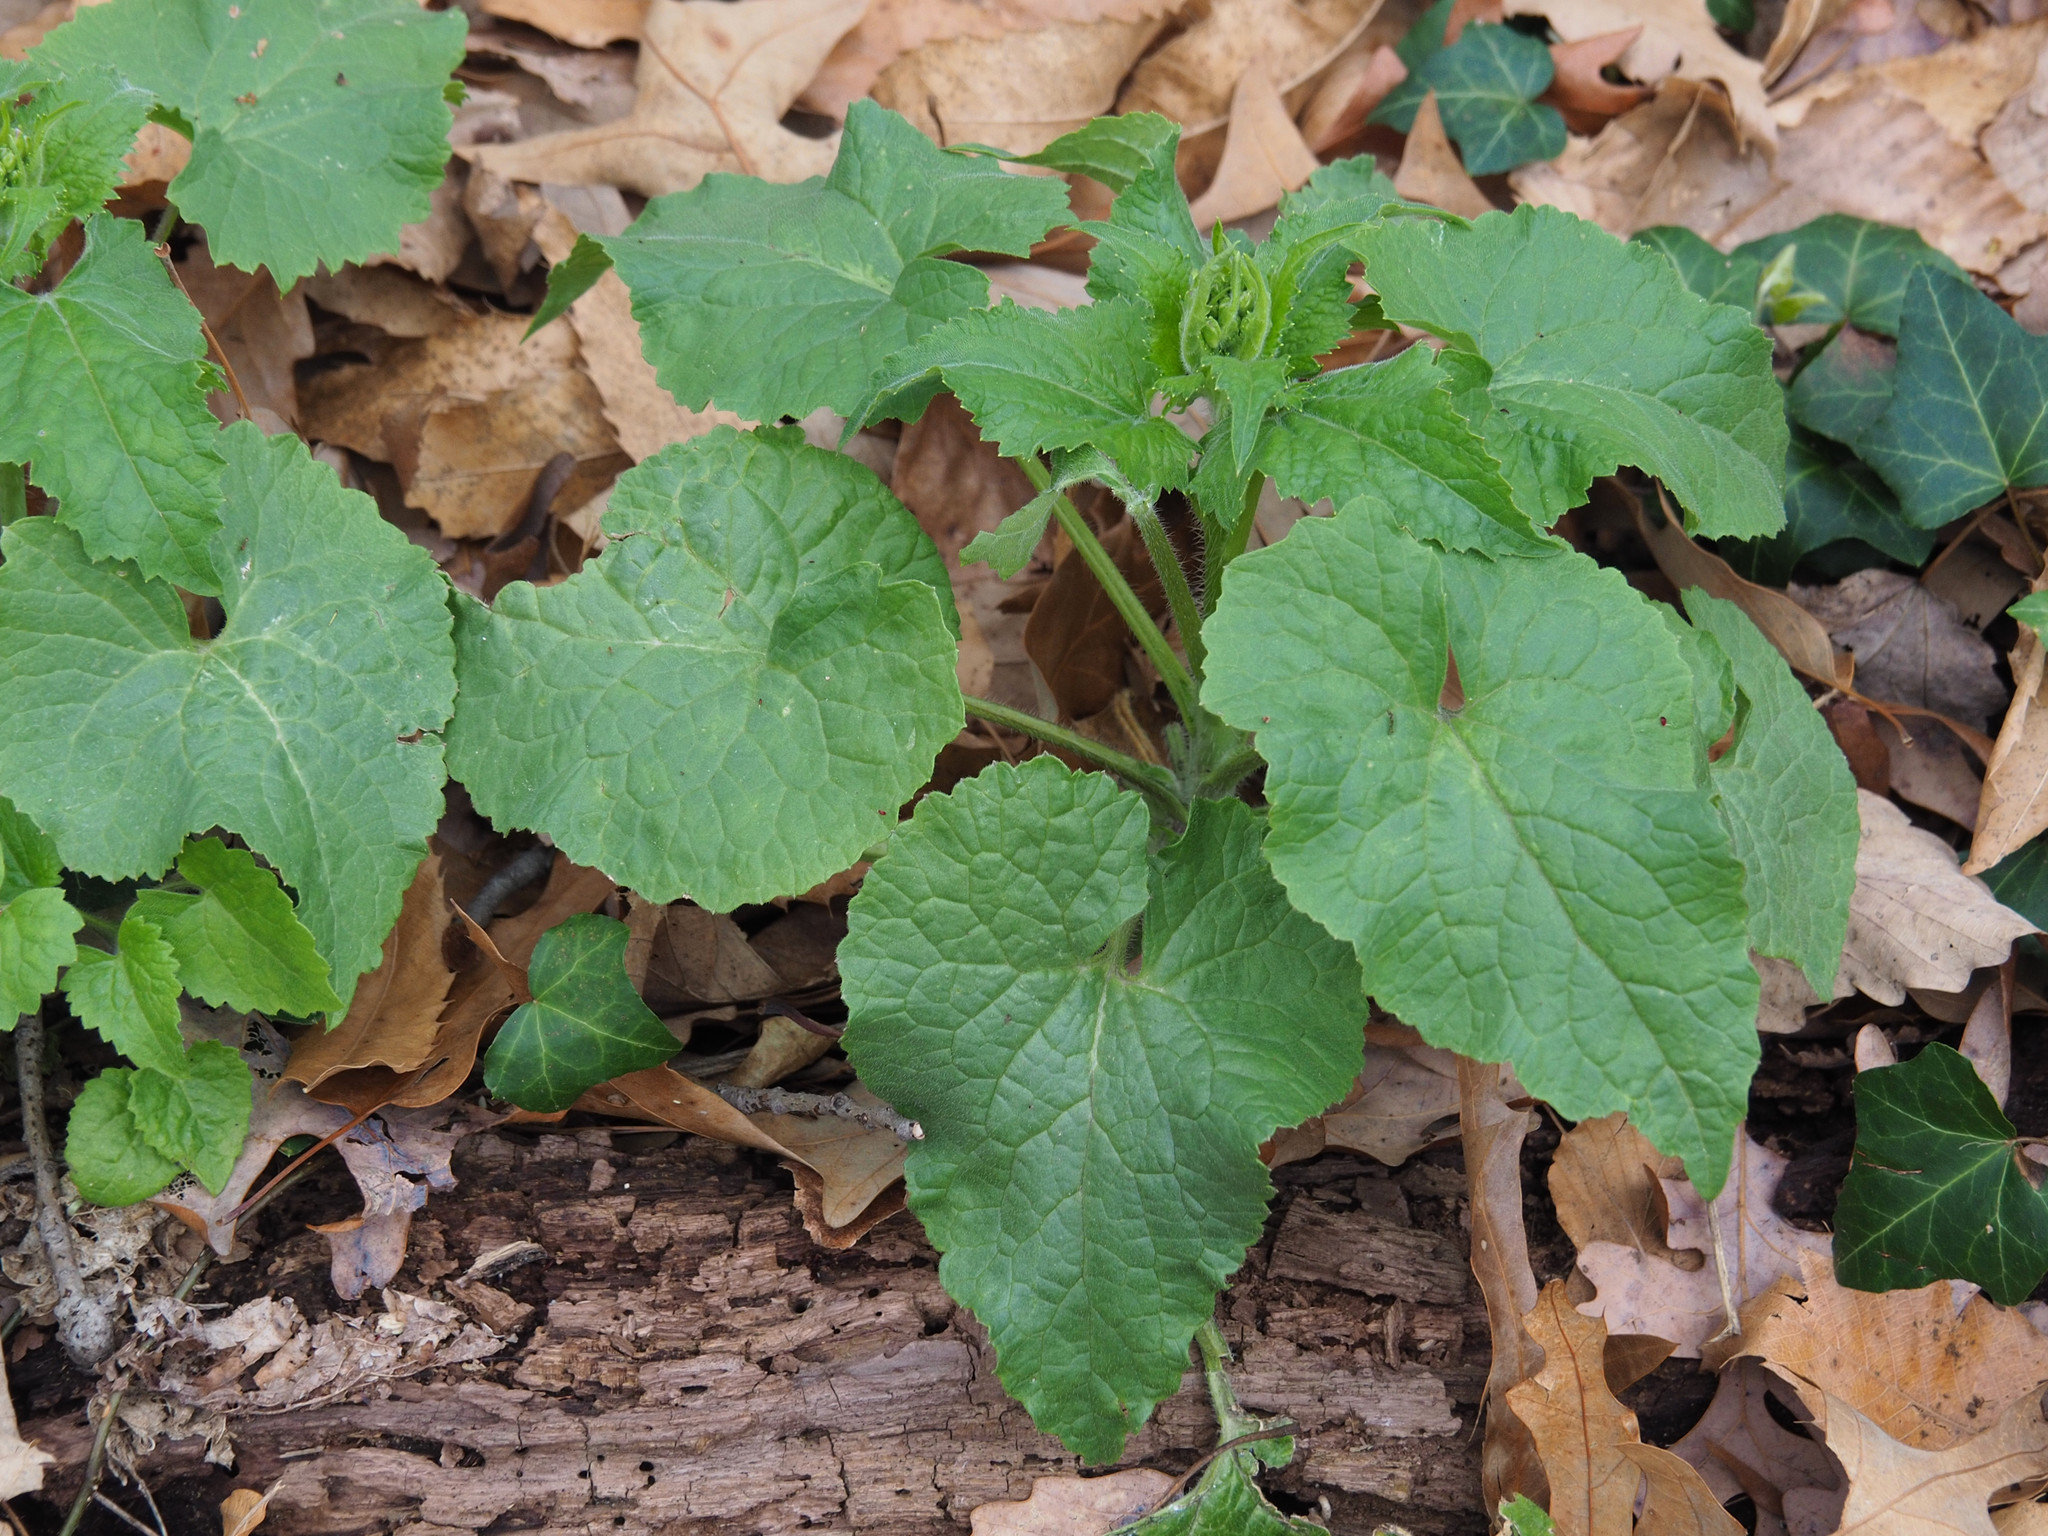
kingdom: Plantae
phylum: Tracheophyta
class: Magnoliopsida
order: Brassicales
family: Brassicaceae
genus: Lunaria
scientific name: Lunaria annua
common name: Honesty
